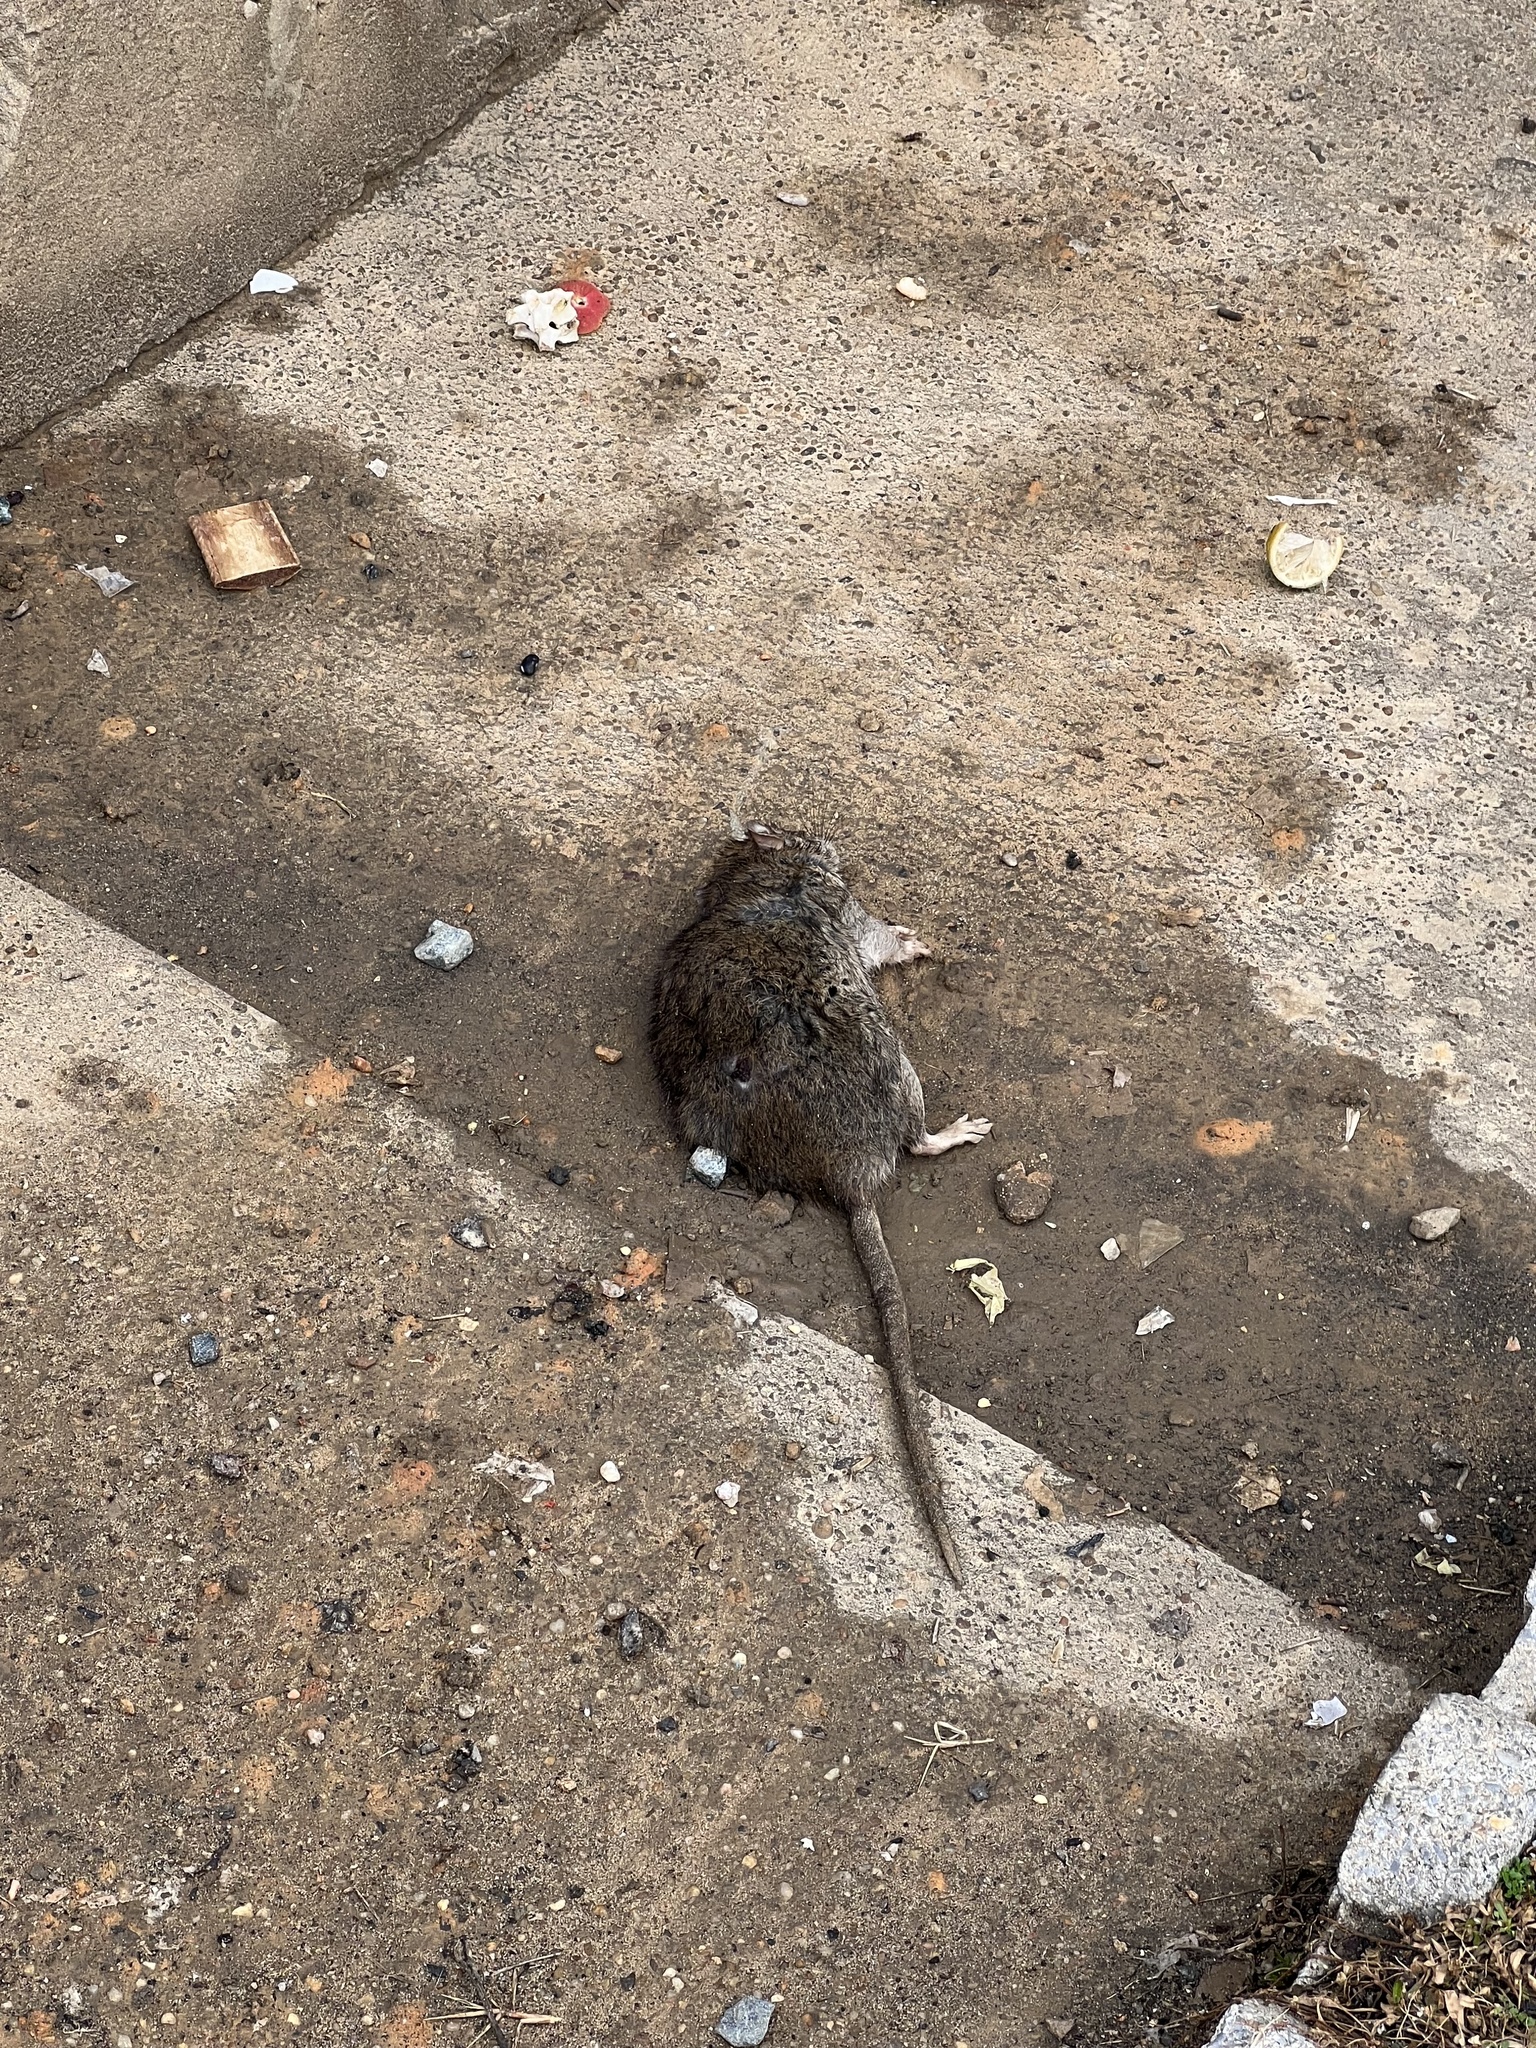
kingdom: Animalia
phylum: Chordata
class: Mammalia
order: Rodentia
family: Muridae
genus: Rattus
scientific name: Rattus norvegicus
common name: Brown rat
